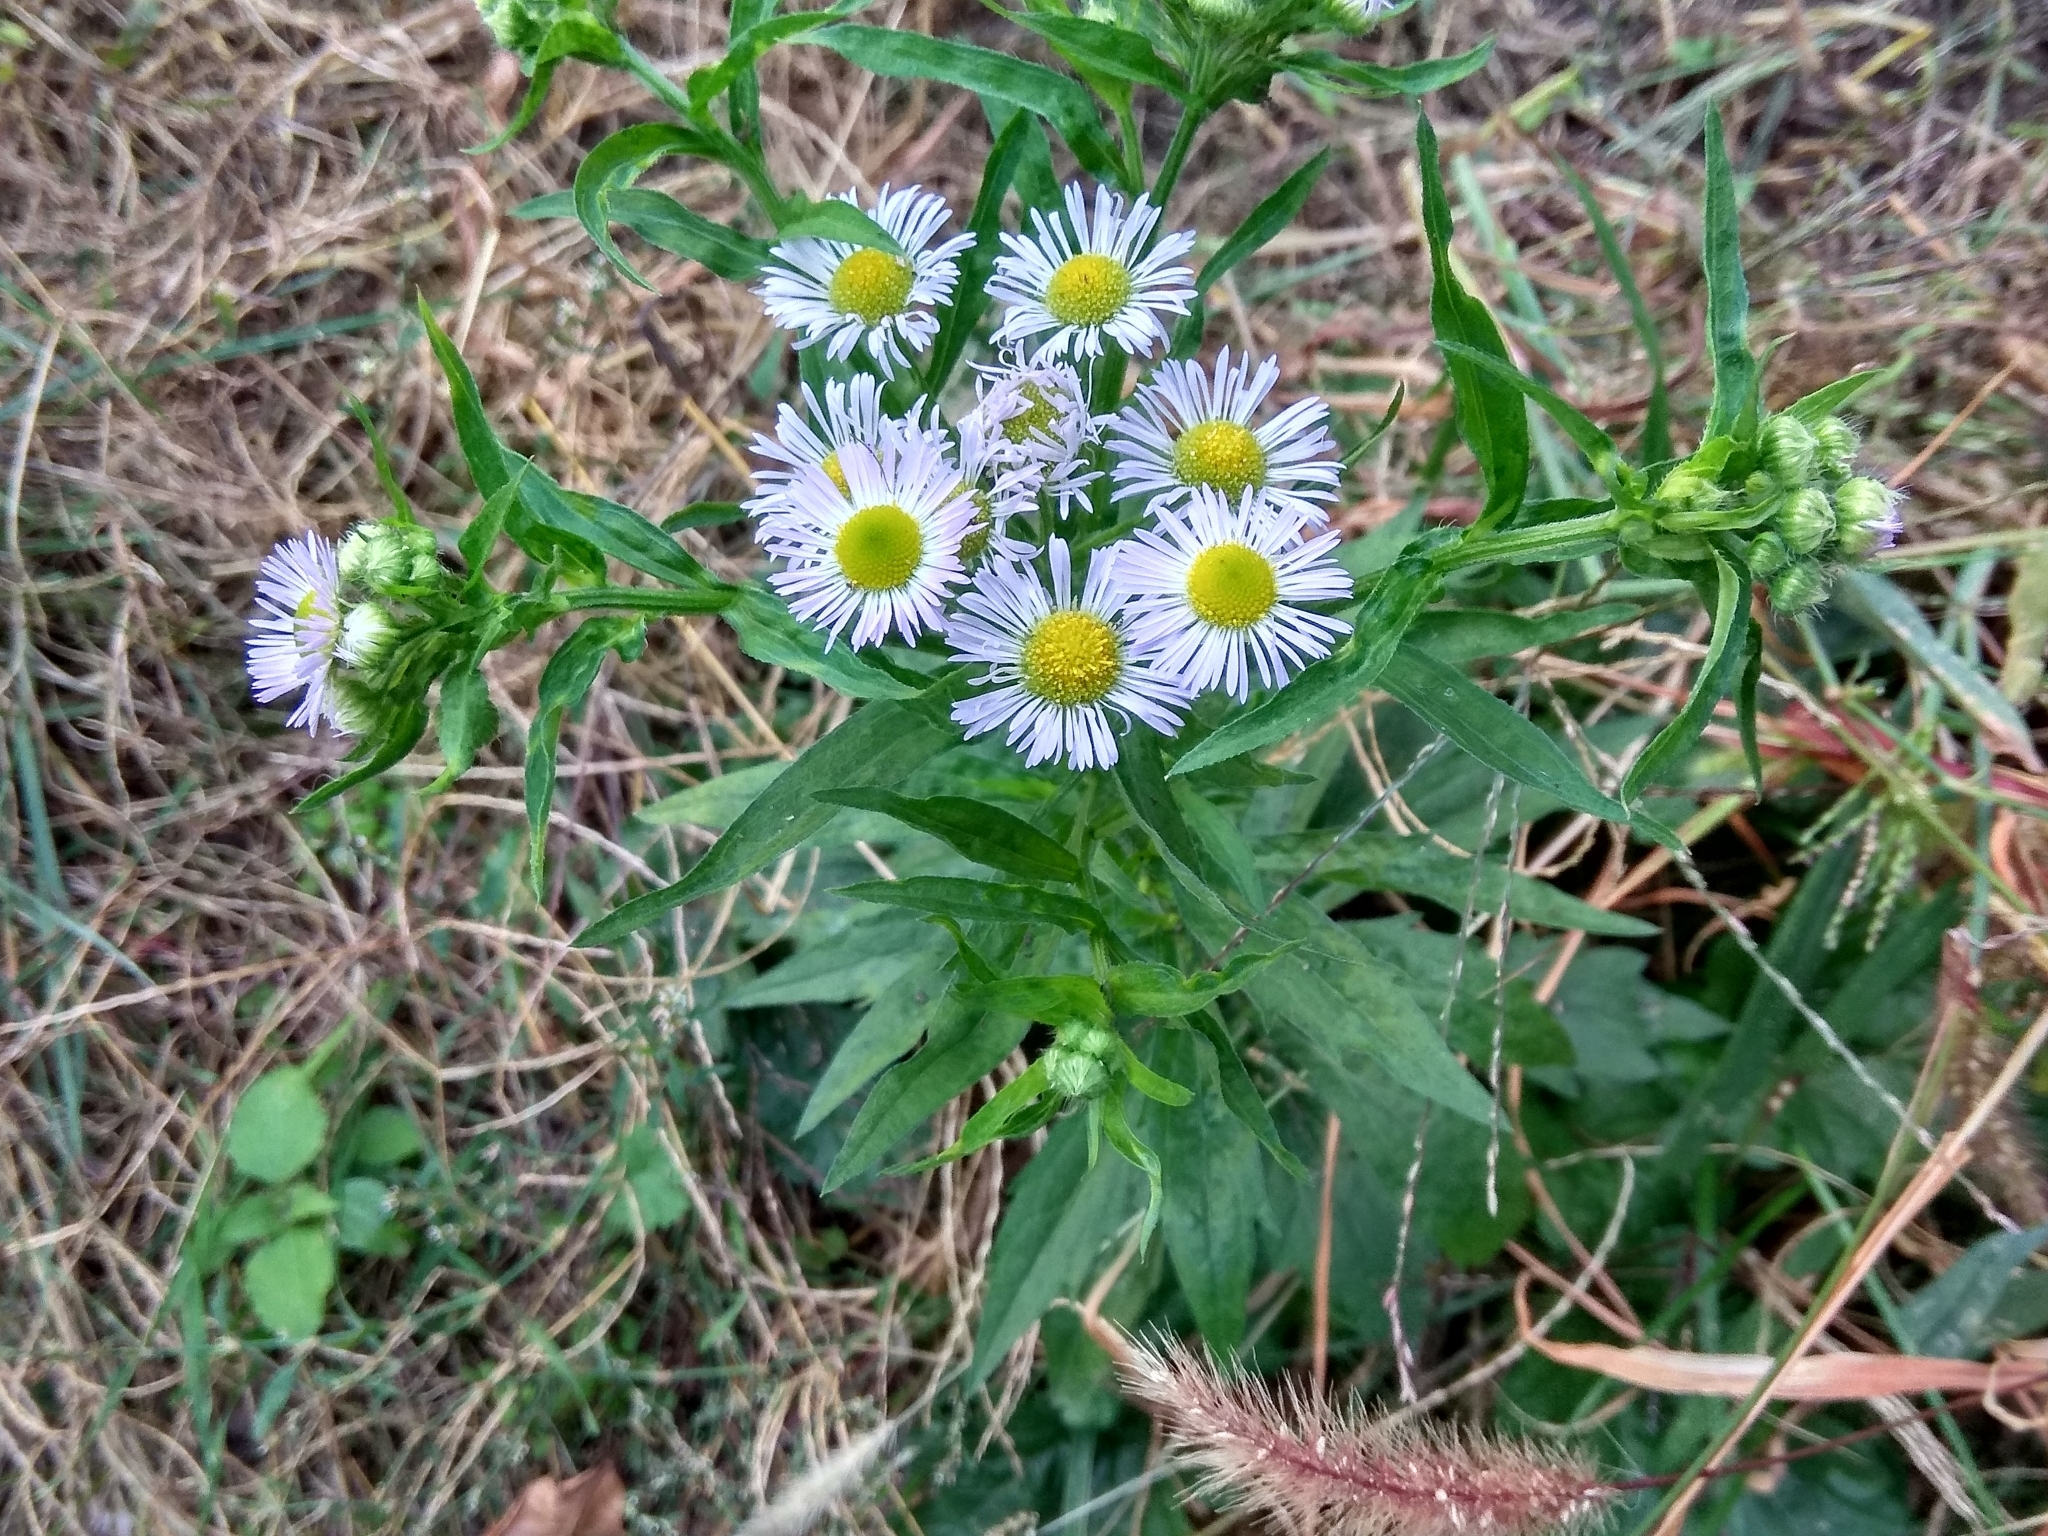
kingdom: Plantae
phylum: Tracheophyta
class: Magnoliopsida
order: Asterales
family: Asteraceae
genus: Erigeron
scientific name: Erigeron annuus
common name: Tall fleabane
